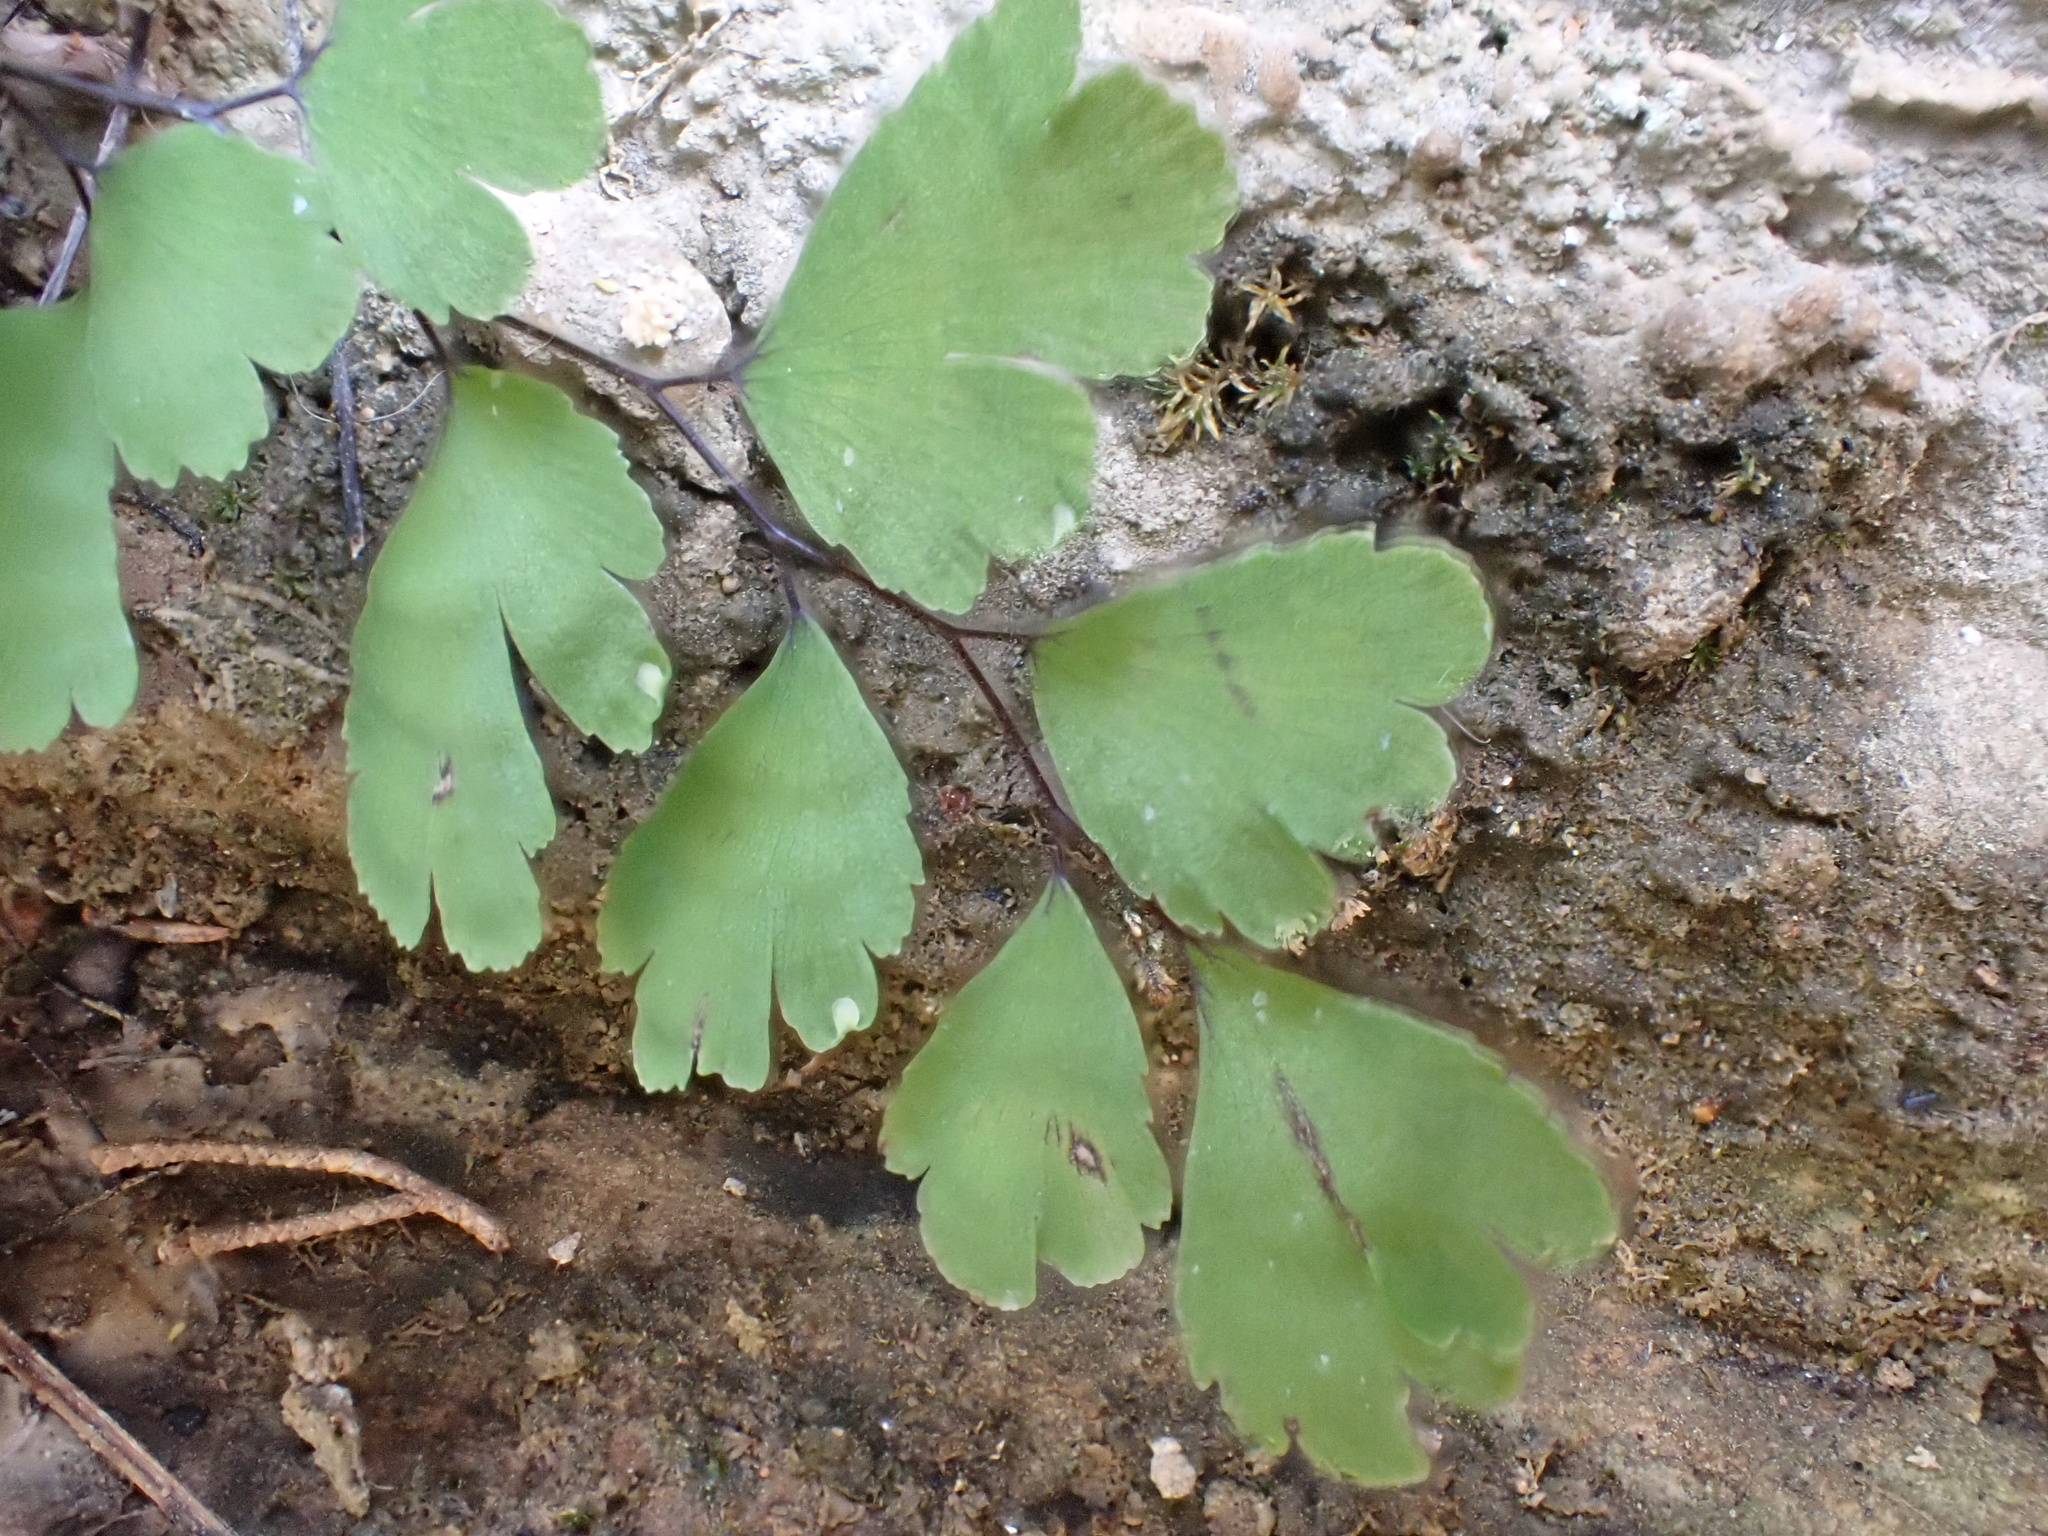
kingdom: Plantae
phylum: Tracheophyta
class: Polypodiopsida
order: Polypodiales
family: Pteridaceae
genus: Adiantum
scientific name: Adiantum capillus-veneris
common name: Maidenhair fern
